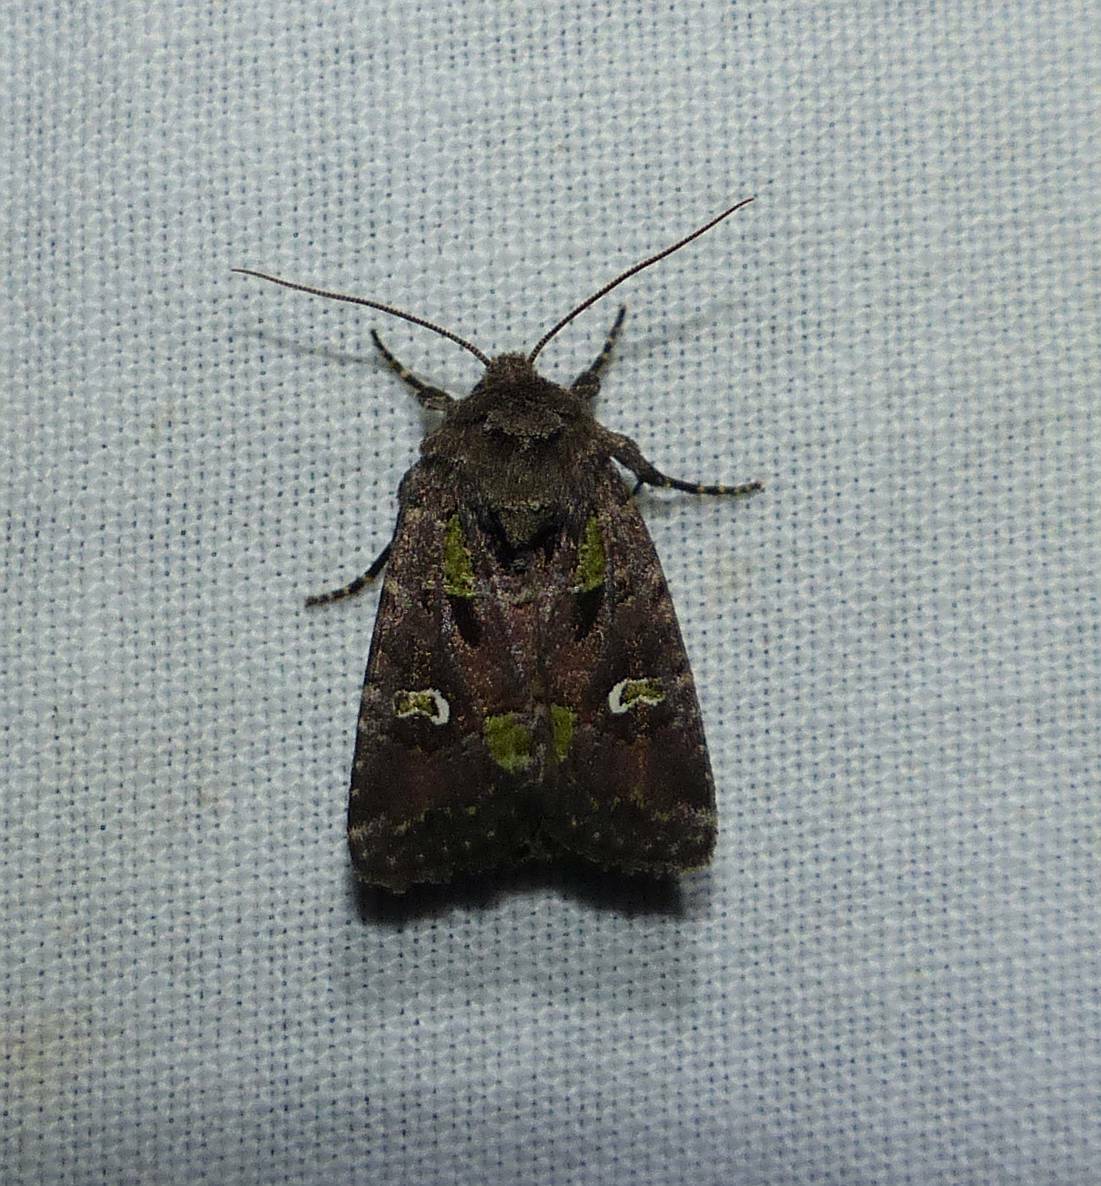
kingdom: Animalia
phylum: Arthropoda
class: Insecta
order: Lepidoptera
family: Noctuidae
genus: Lacinipolia
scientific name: Lacinipolia renigera
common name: Kidney-spotted minor
